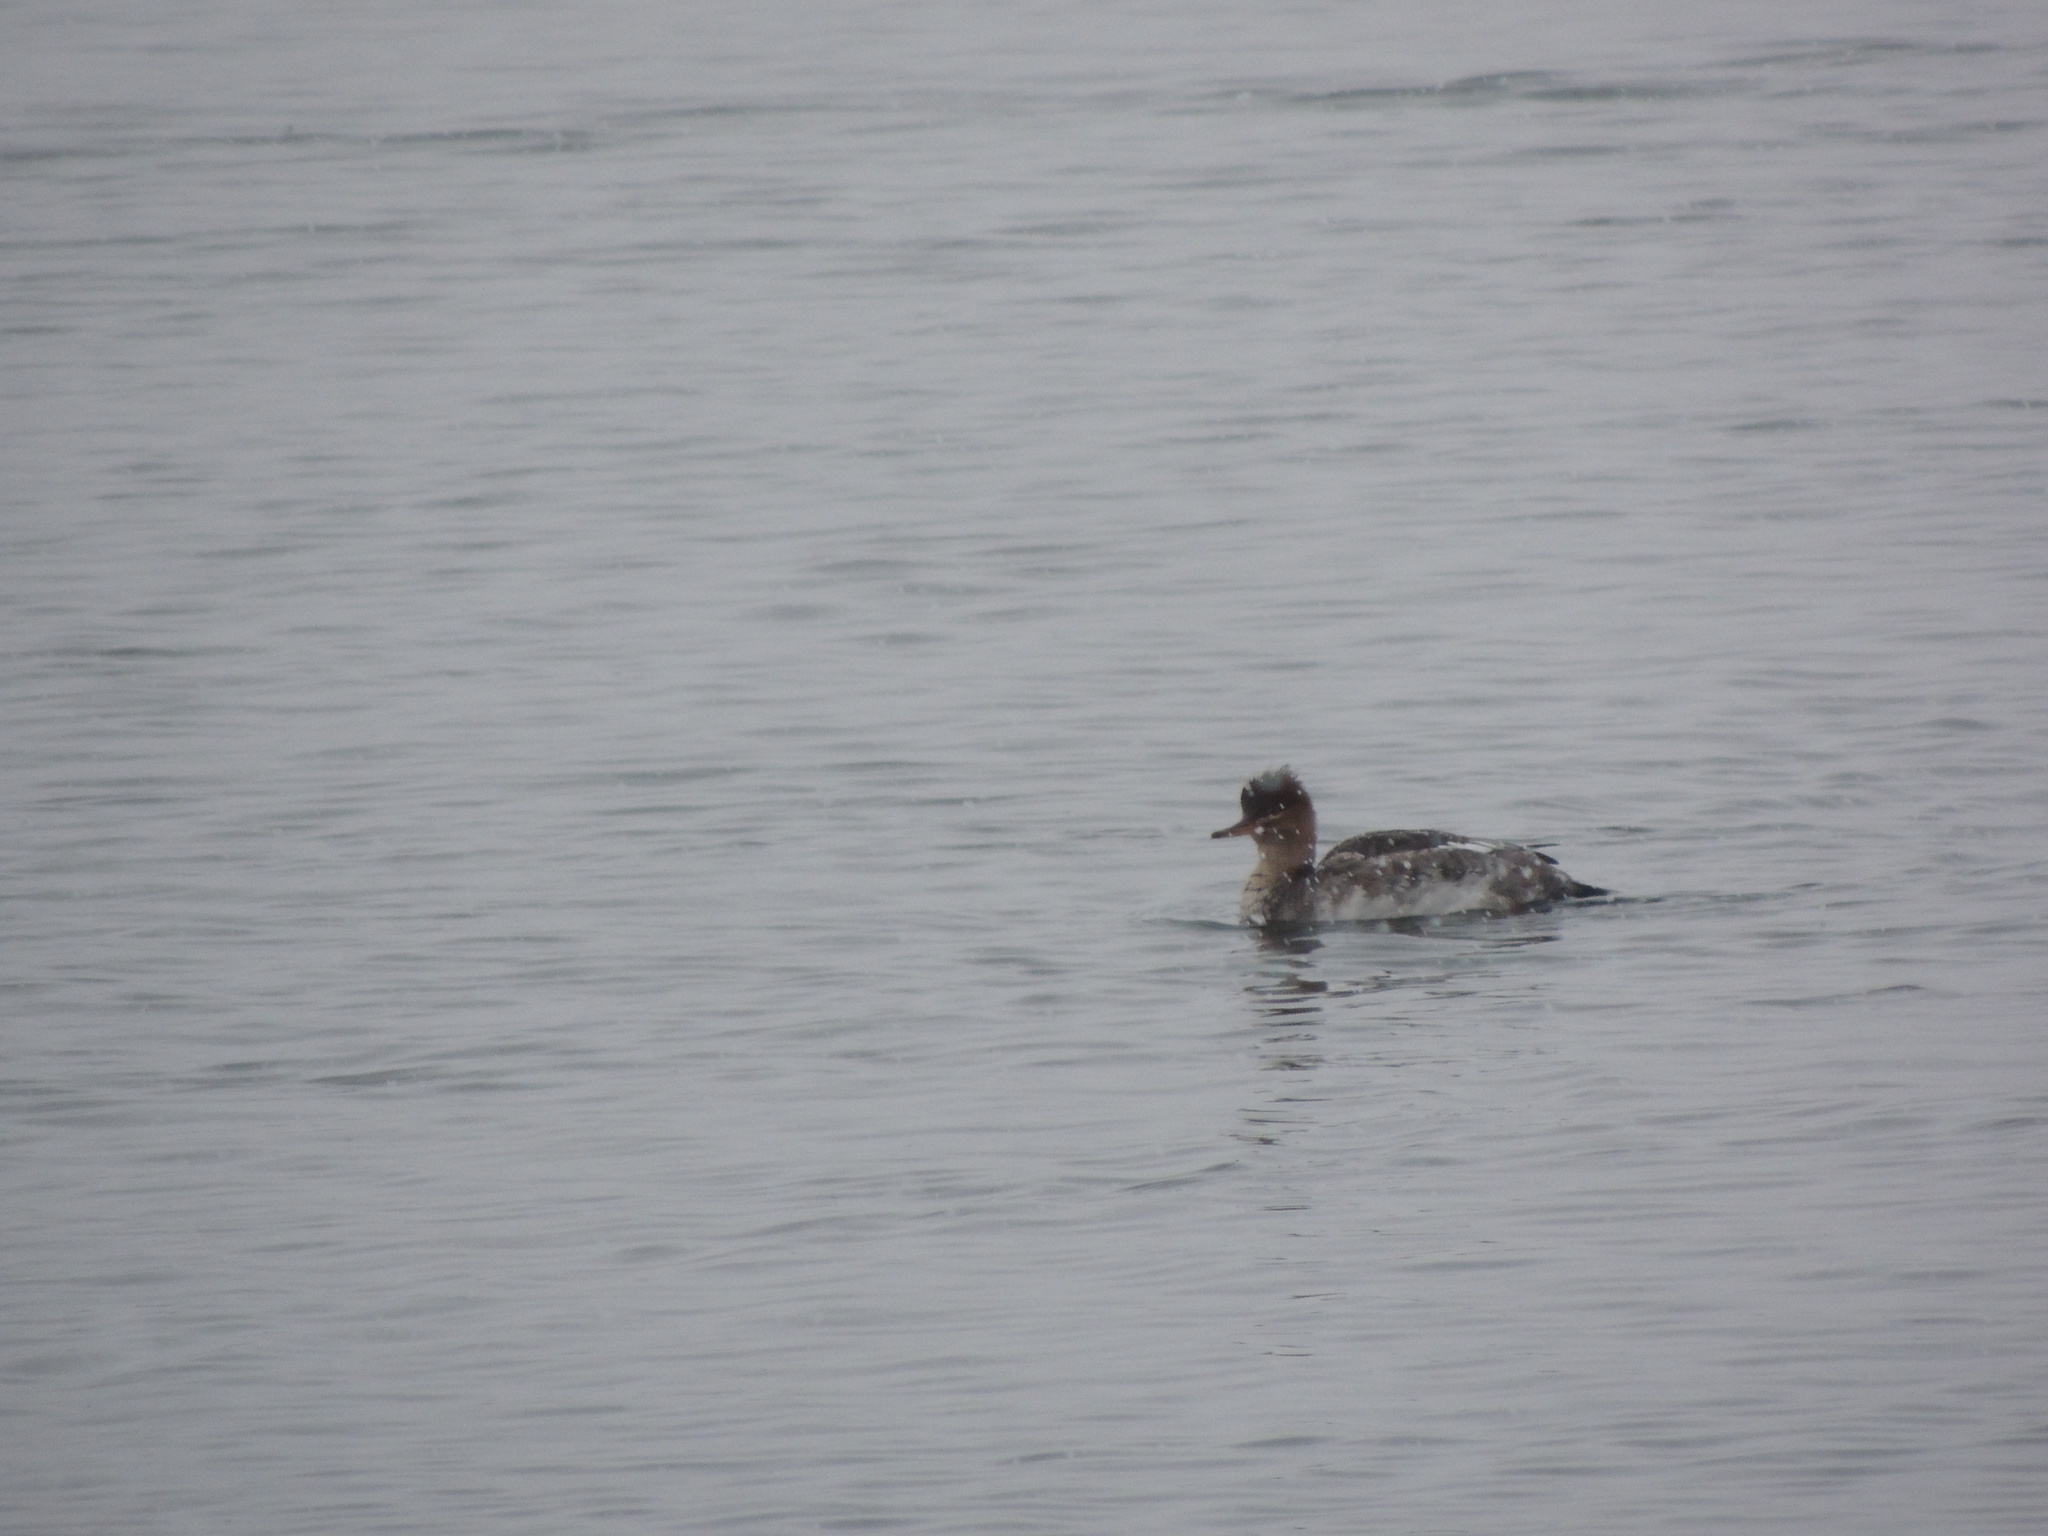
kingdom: Animalia
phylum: Chordata
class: Aves
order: Anseriformes
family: Anatidae
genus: Mergus
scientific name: Mergus serrator
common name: Red-breasted merganser
